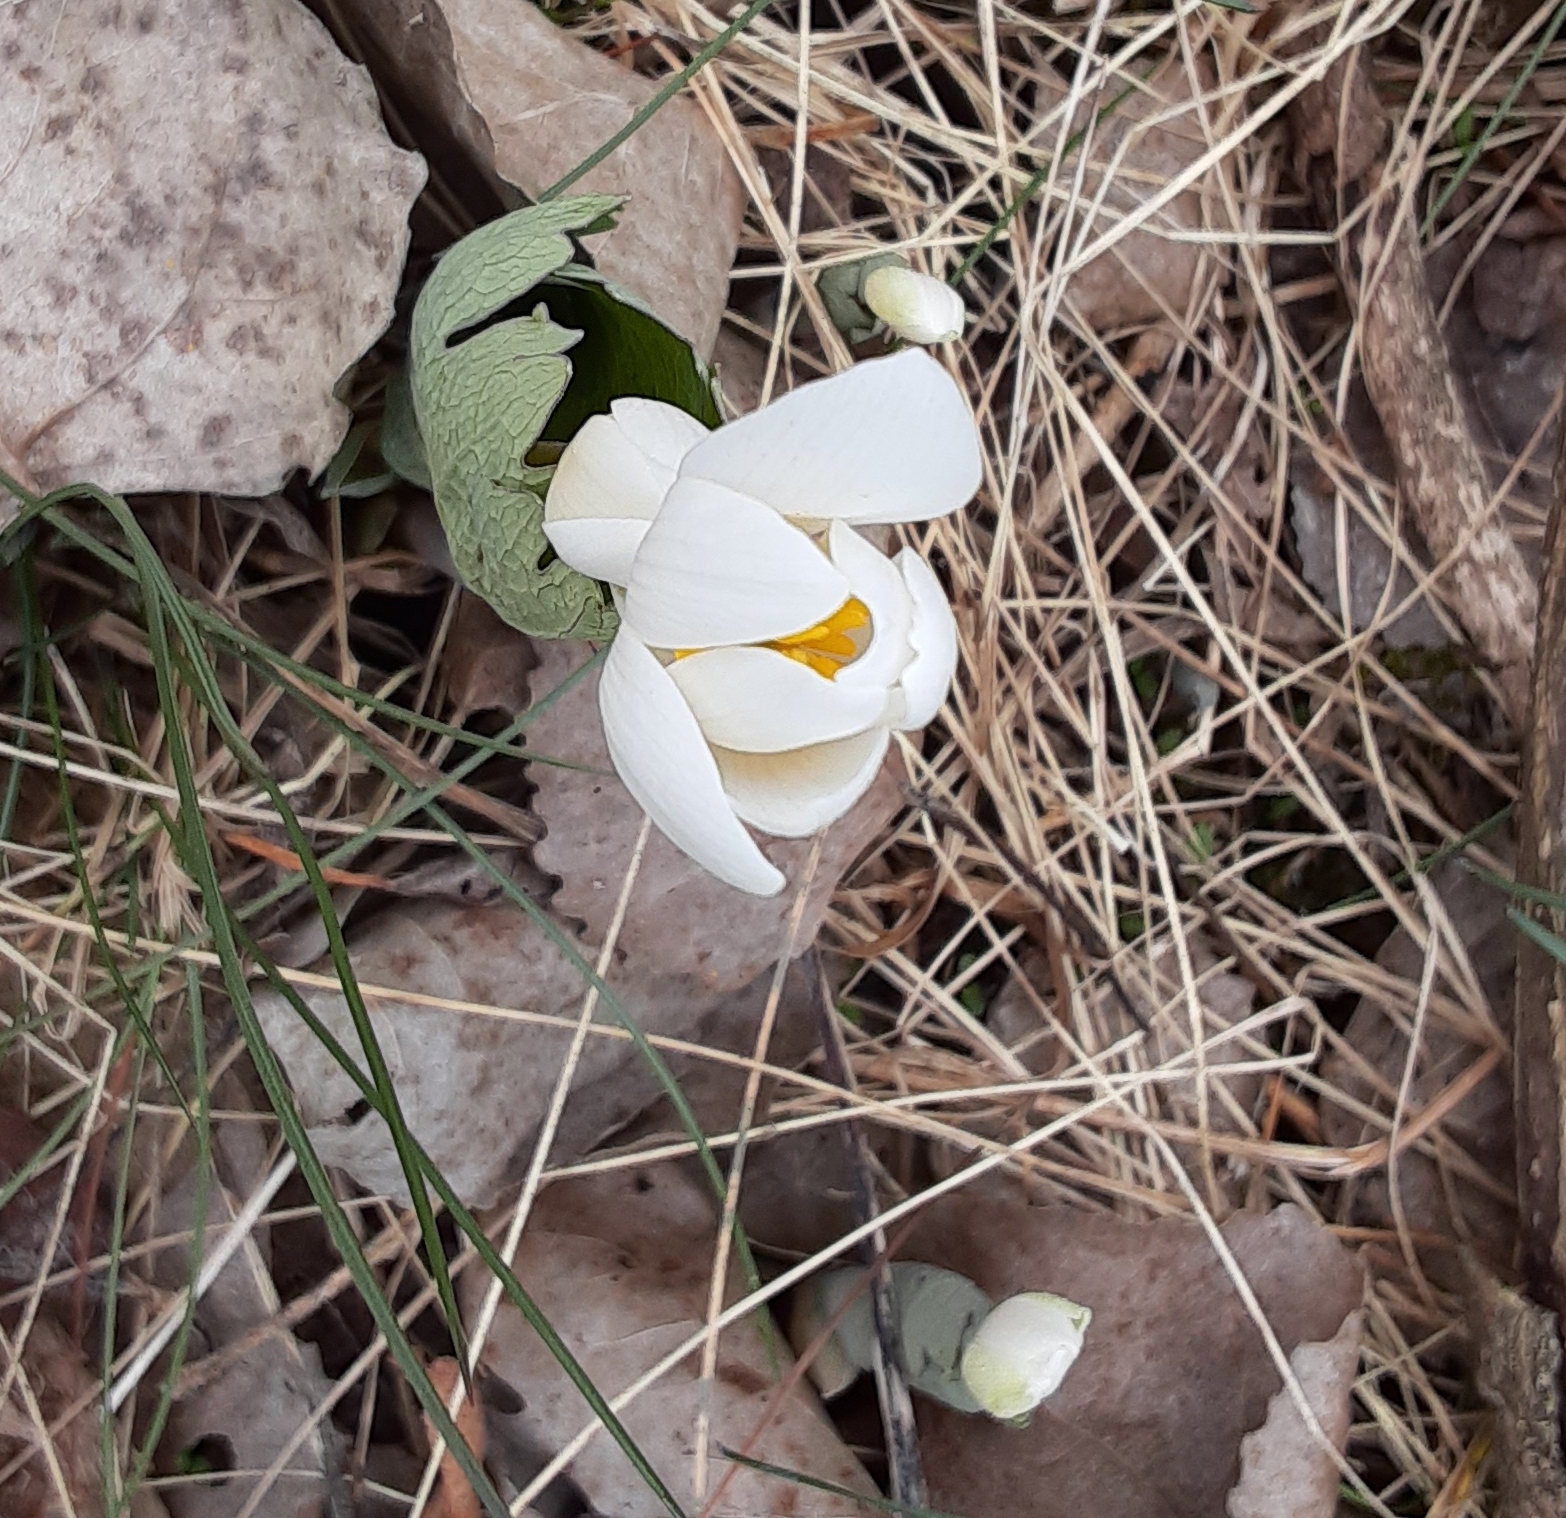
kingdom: Plantae
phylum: Tracheophyta
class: Magnoliopsida
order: Ranunculales
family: Papaveraceae
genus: Sanguinaria
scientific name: Sanguinaria canadensis
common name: Bloodroot
